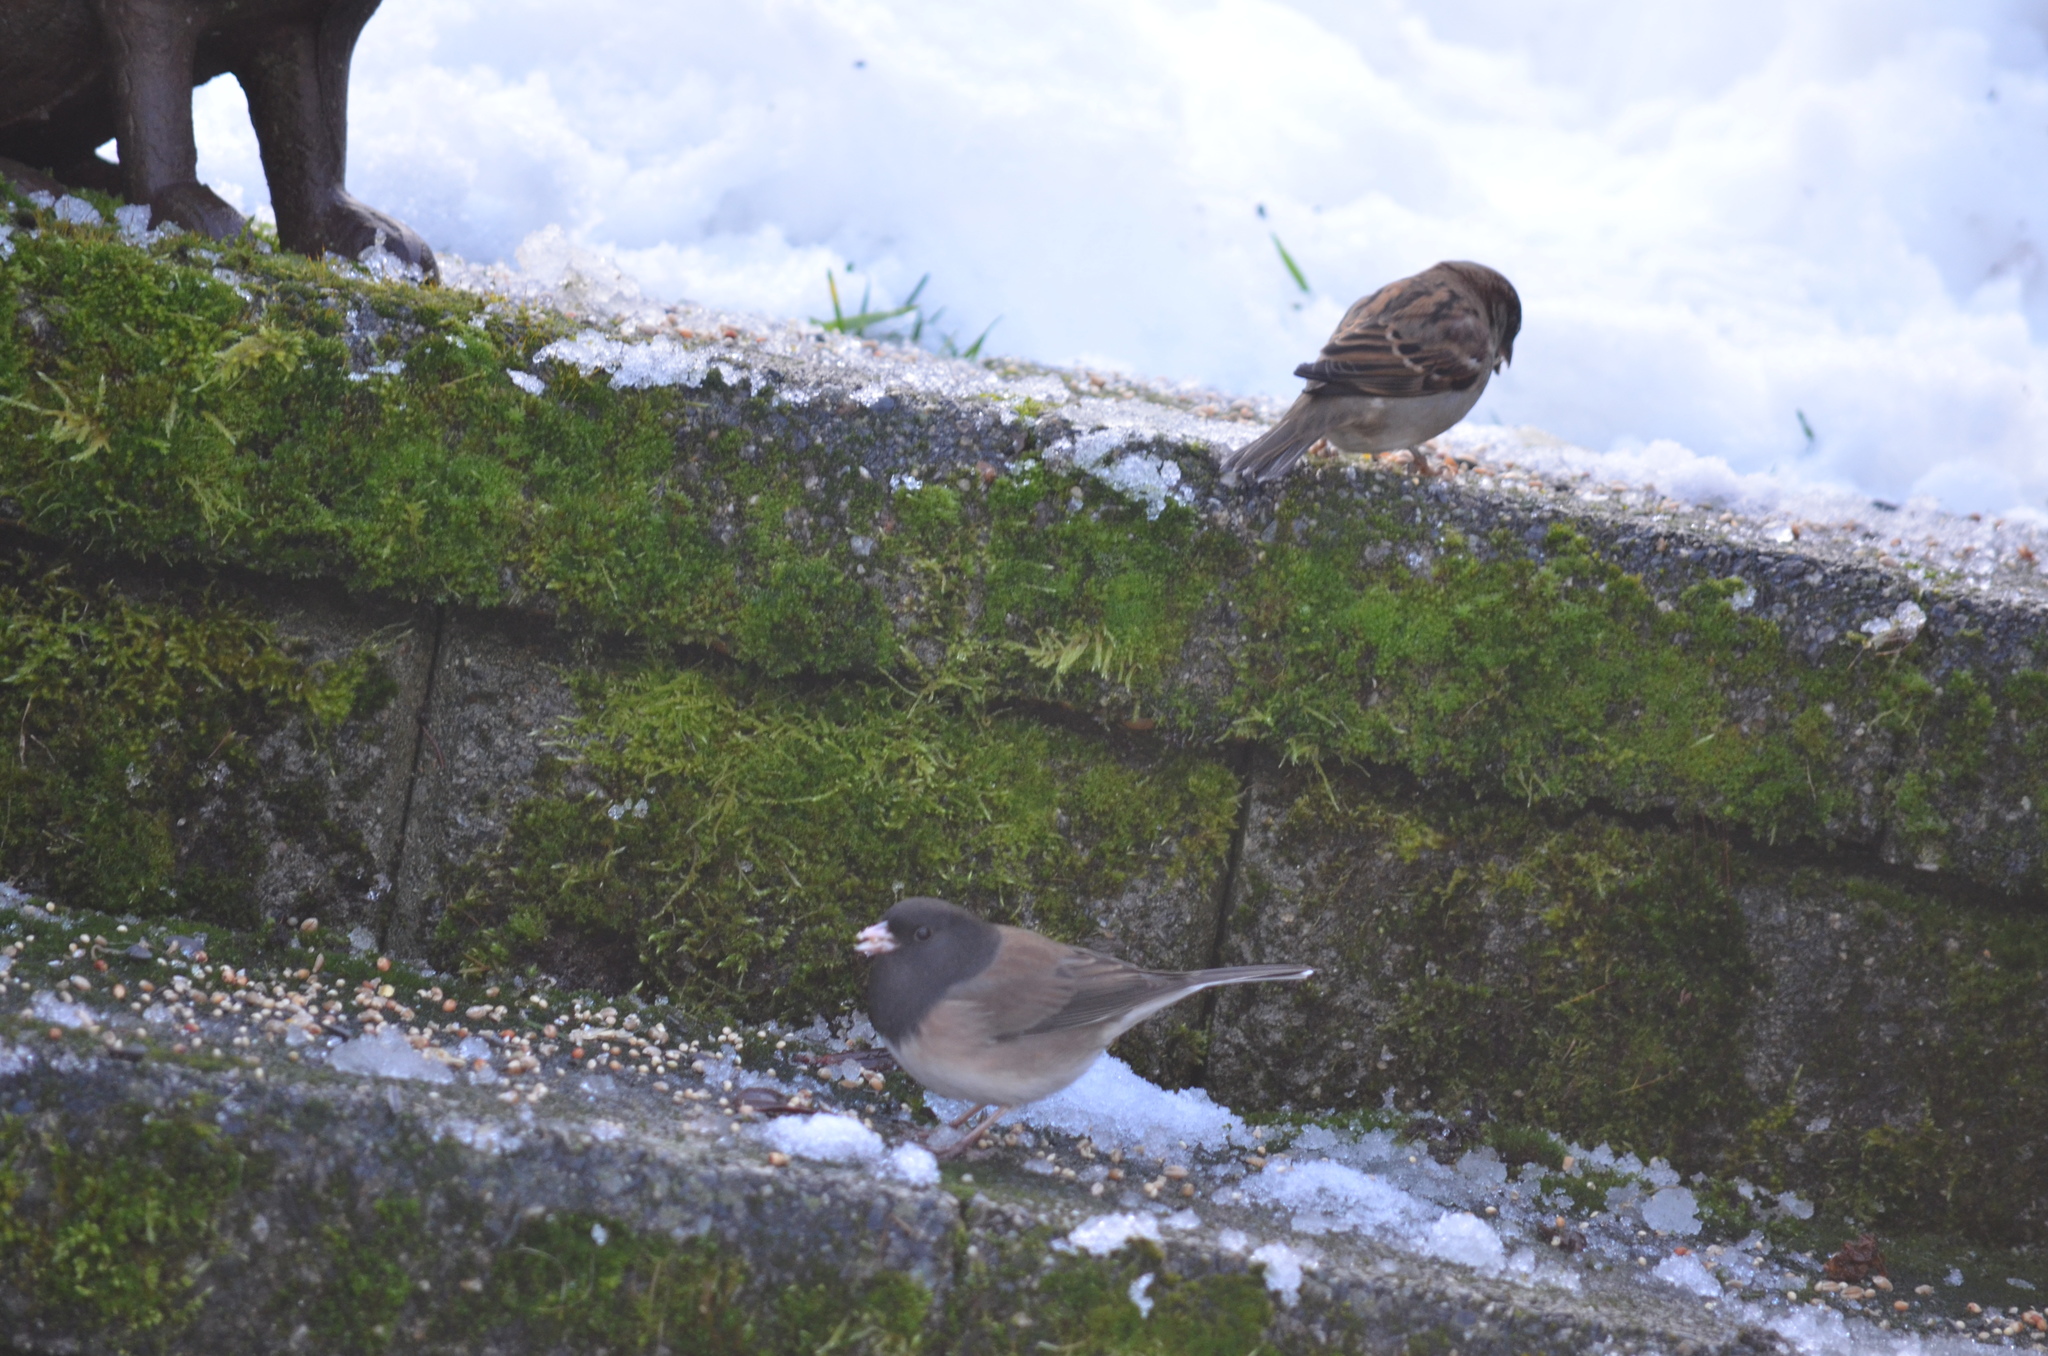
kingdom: Animalia
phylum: Chordata
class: Aves
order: Passeriformes
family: Passerellidae
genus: Junco
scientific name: Junco hyemalis
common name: Dark-eyed junco
